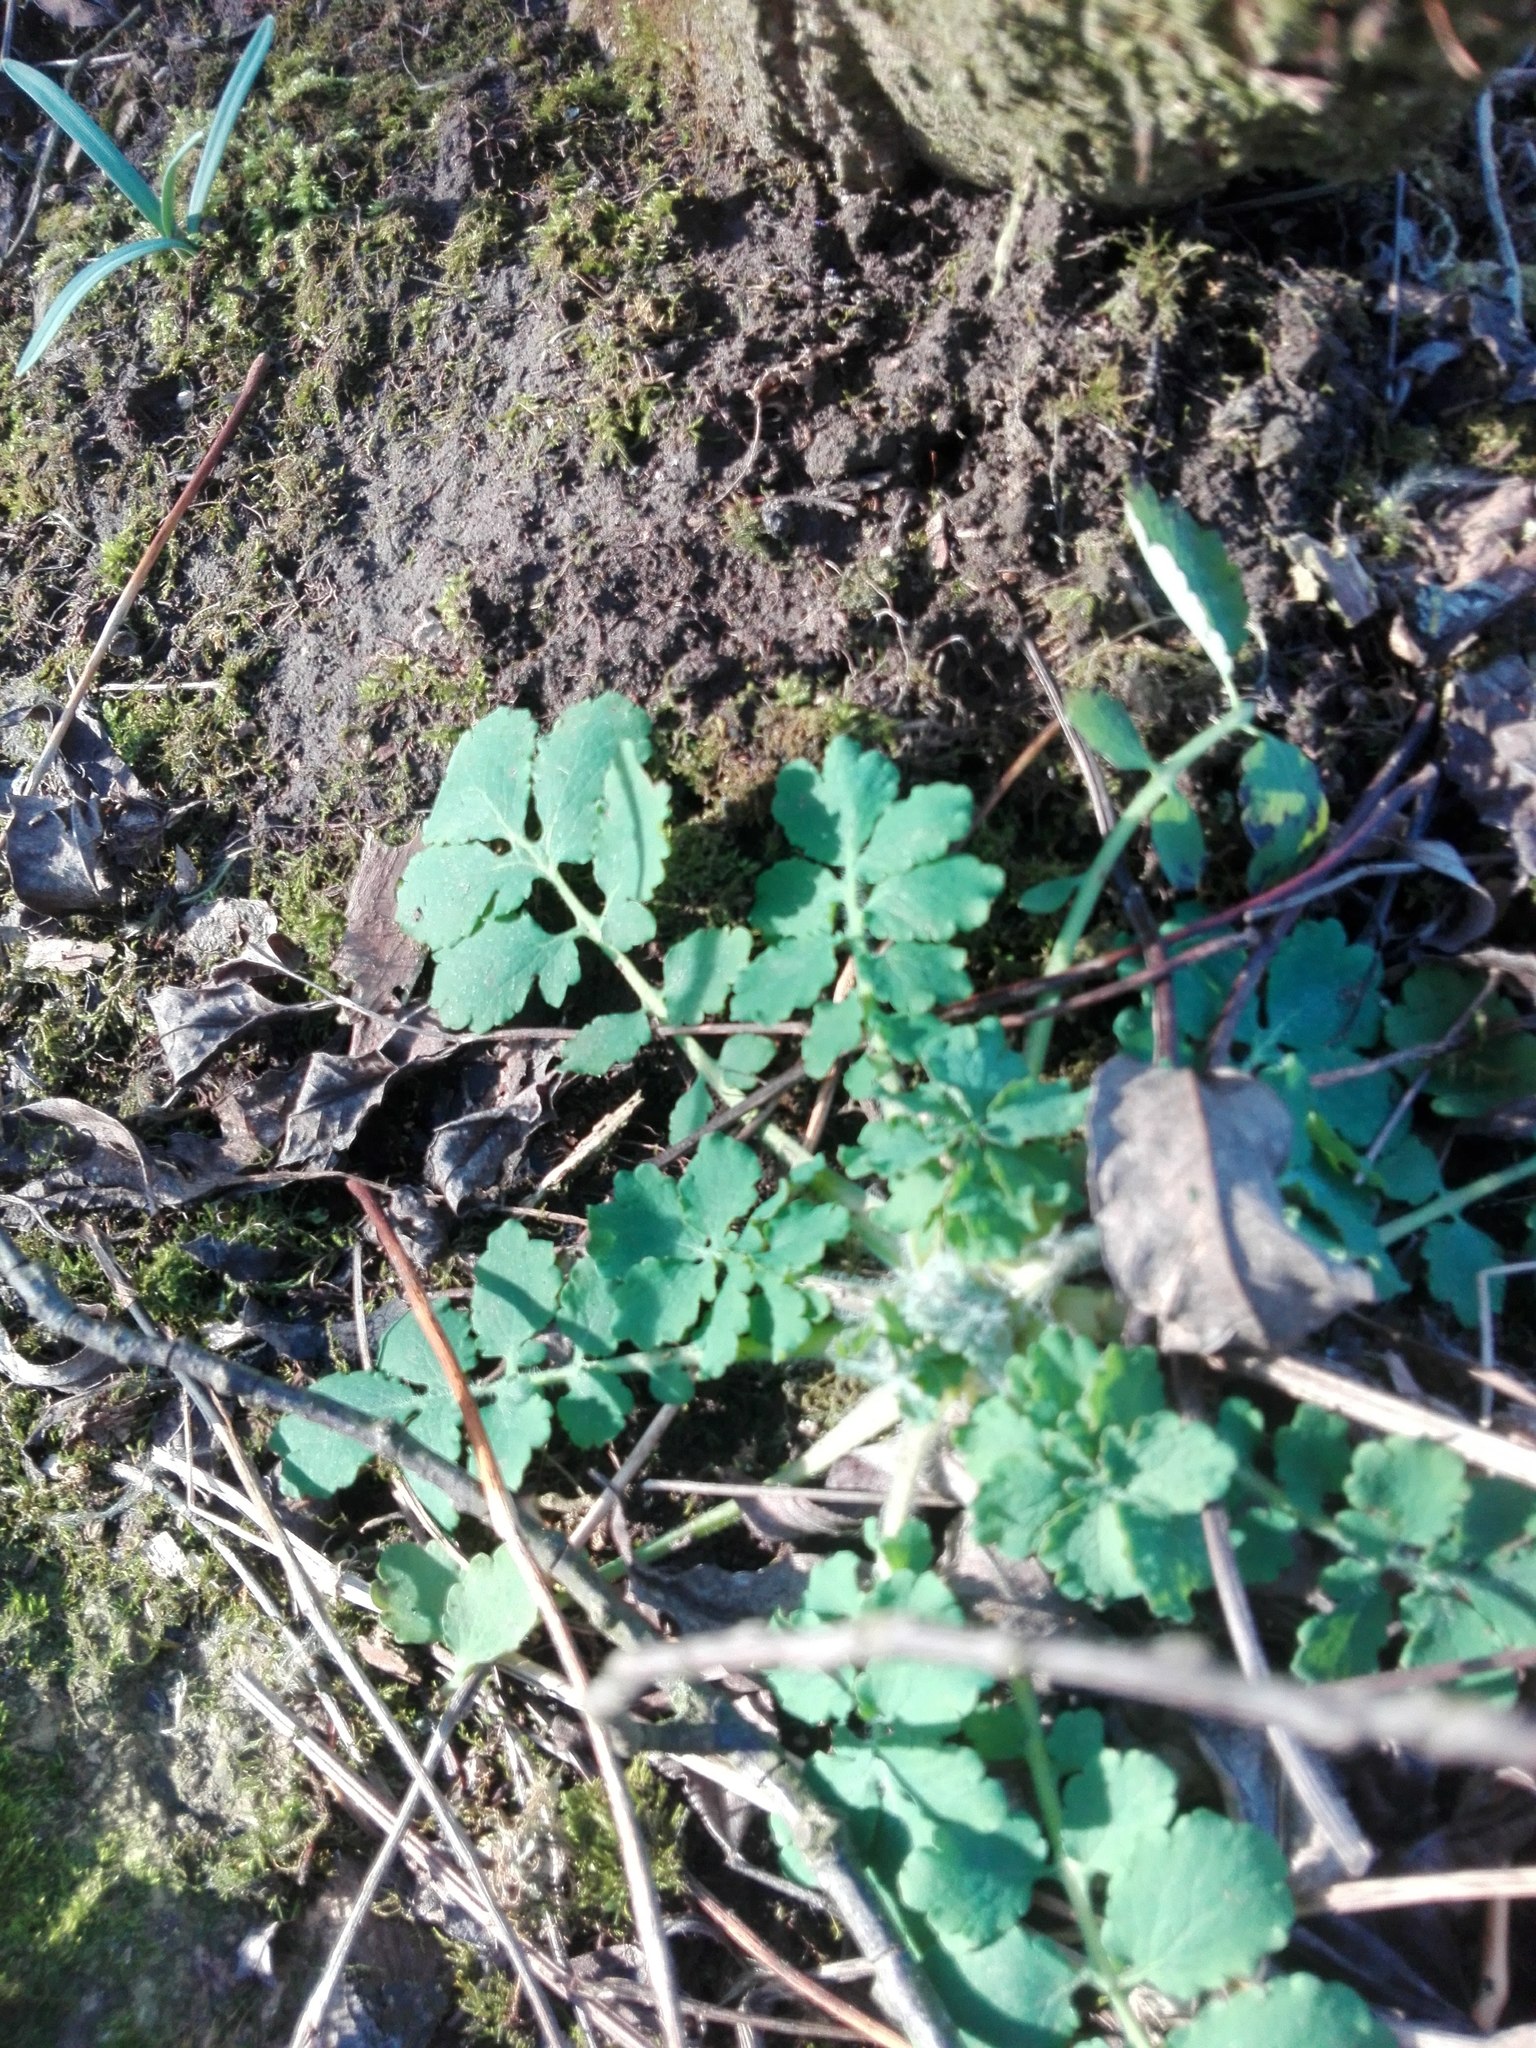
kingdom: Plantae
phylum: Tracheophyta
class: Magnoliopsida
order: Ranunculales
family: Papaveraceae
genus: Chelidonium
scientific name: Chelidonium majus
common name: Greater celandine
